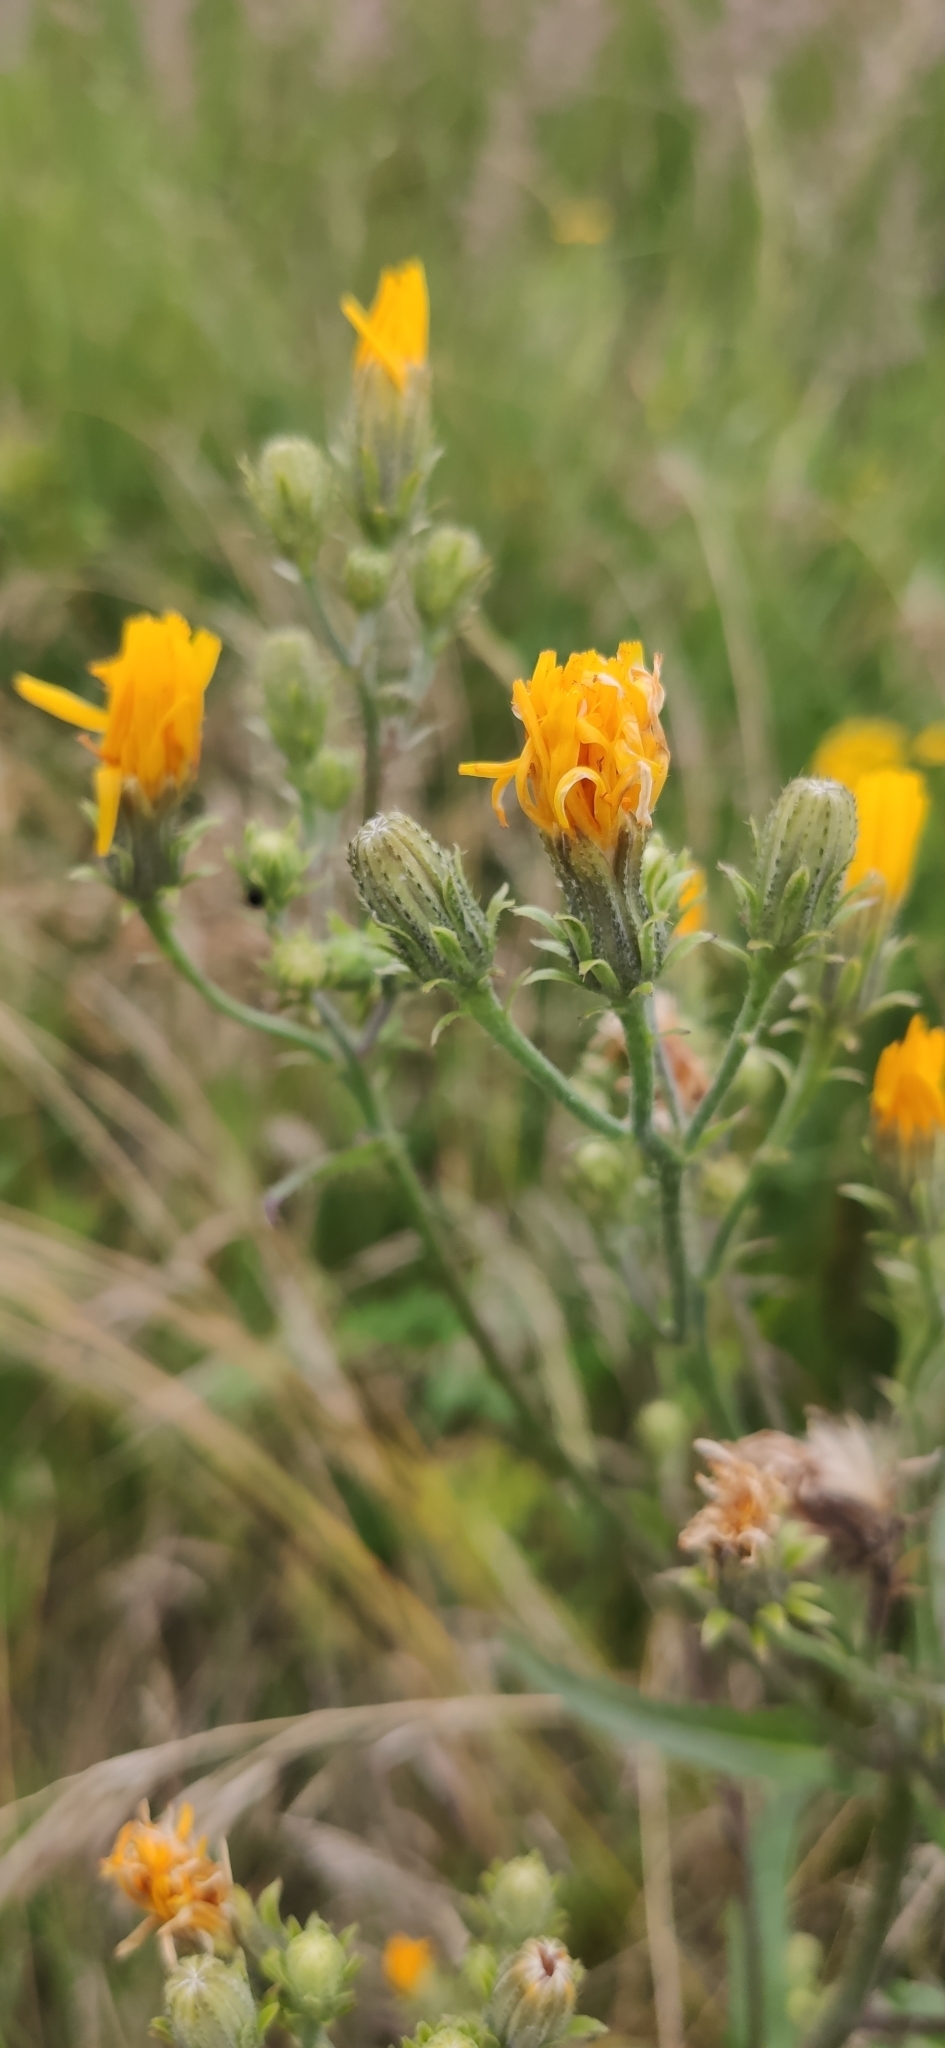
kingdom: Plantae
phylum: Tracheophyta
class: Magnoliopsida
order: Asterales
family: Asteraceae
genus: Picris
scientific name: Picris hieracioides
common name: Hawkweed oxtongue
